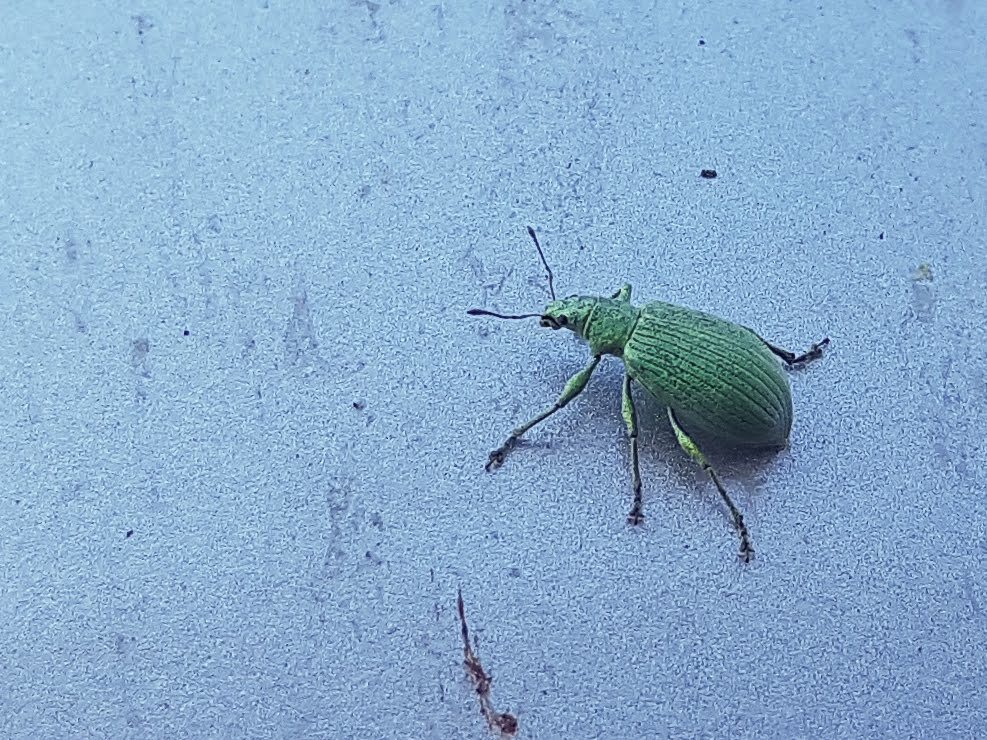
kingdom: Animalia
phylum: Arthropoda
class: Insecta
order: Coleoptera
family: Curculionidae
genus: Polydrusus
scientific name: Polydrusus planifrons
